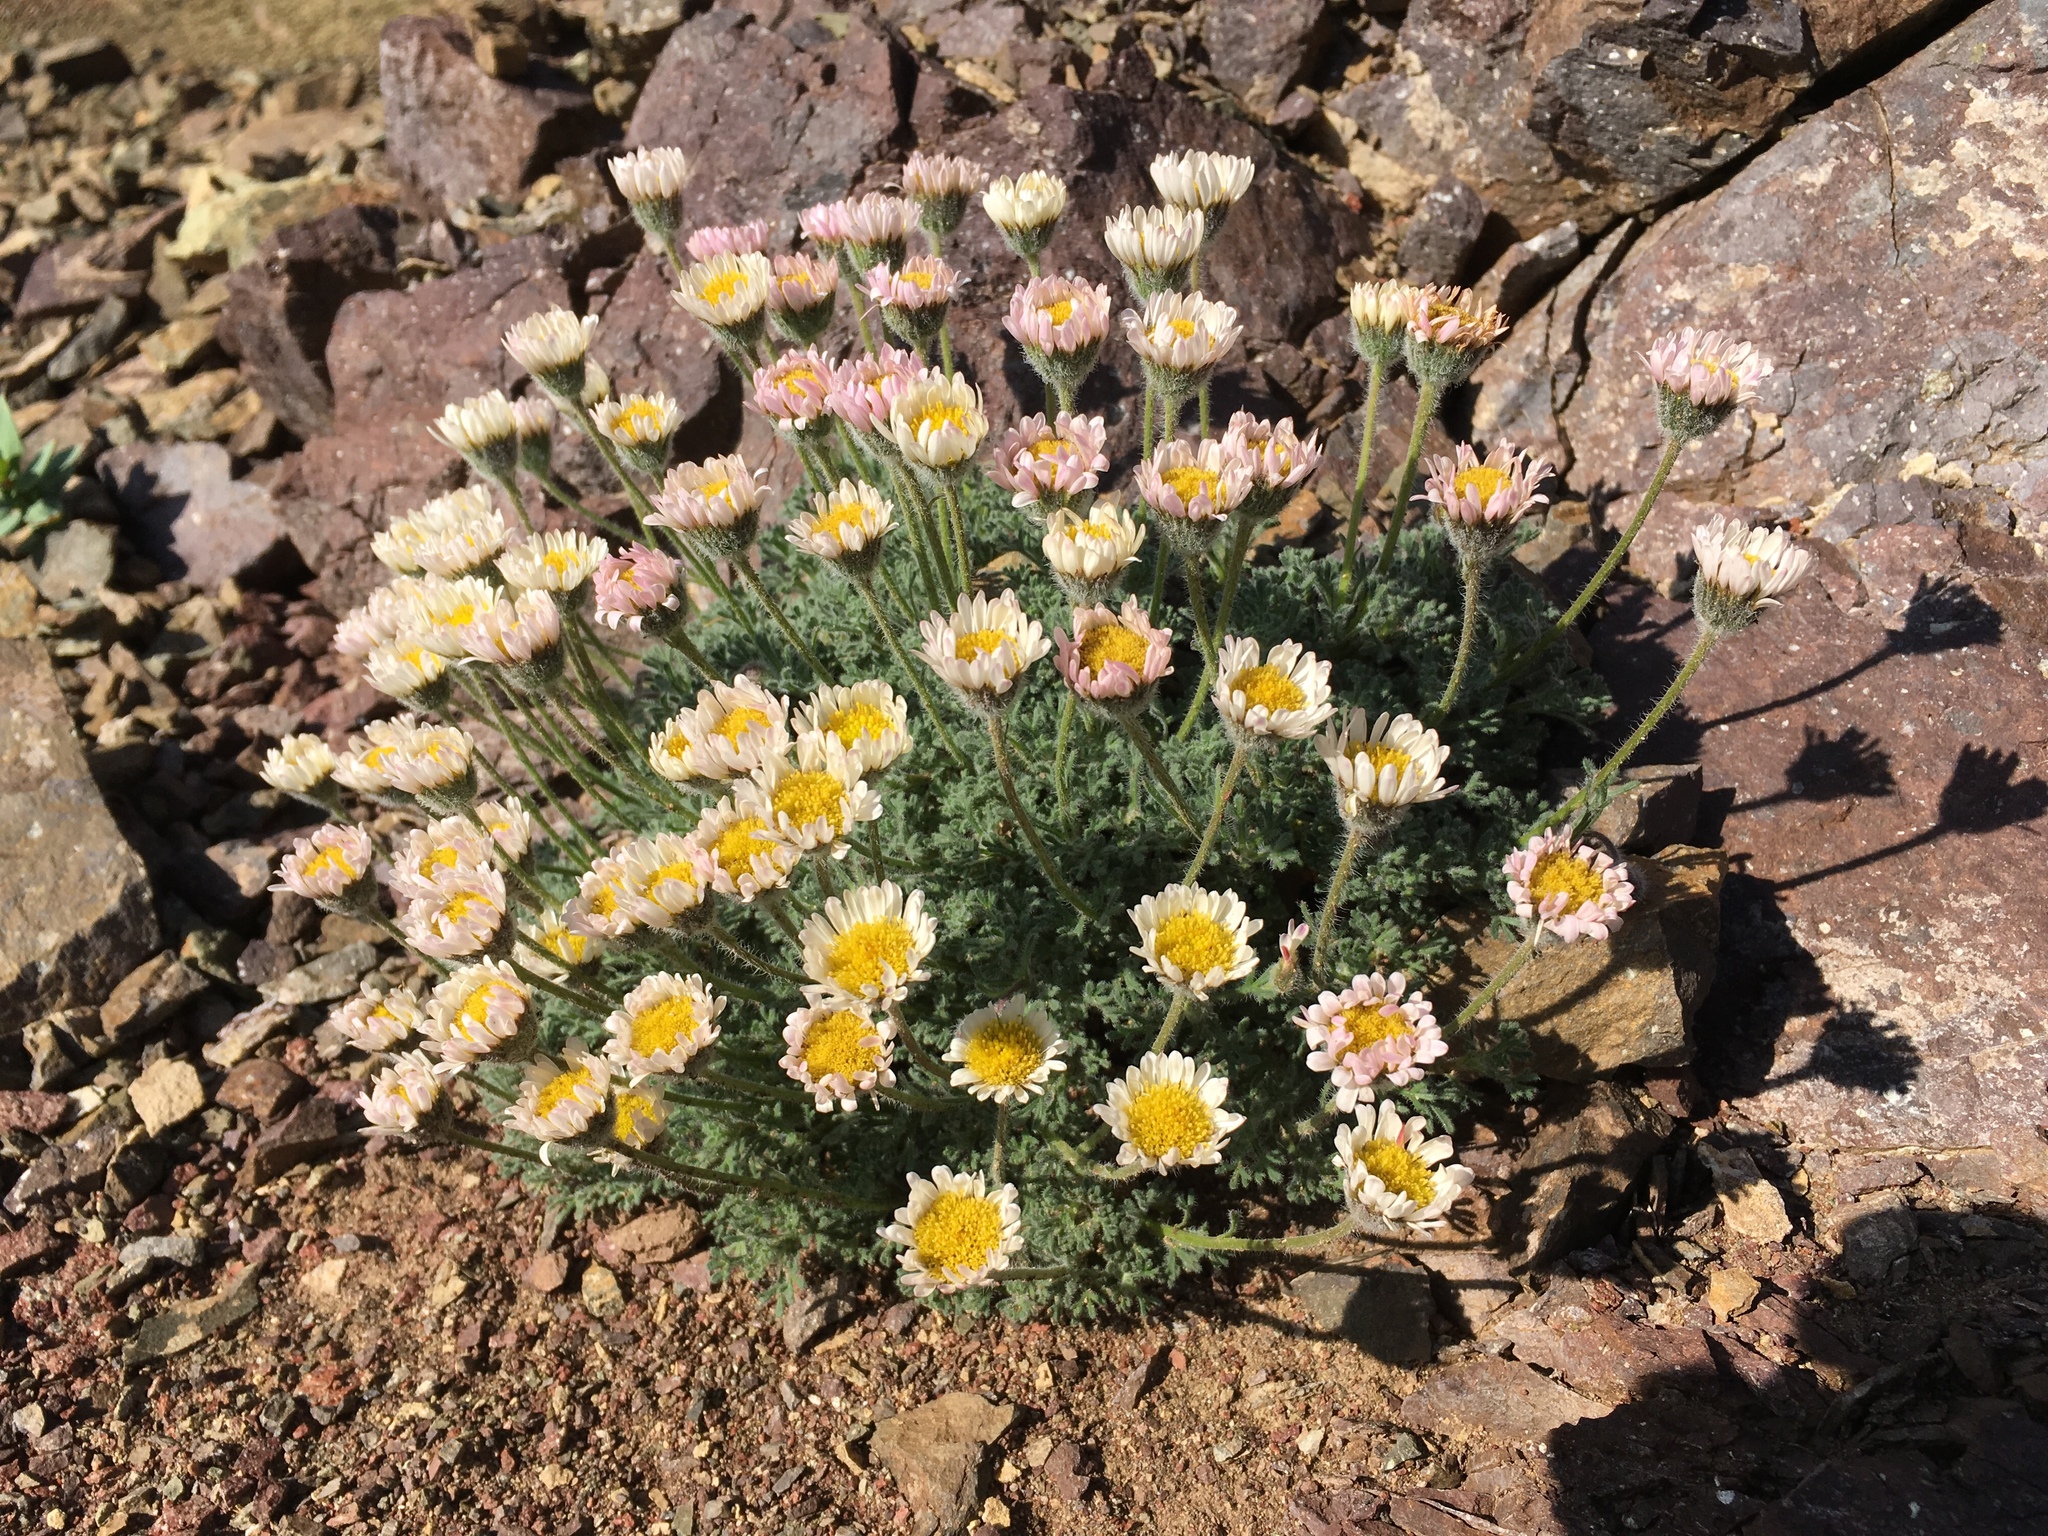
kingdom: Plantae
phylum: Tracheophyta
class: Magnoliopsida
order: Asterales
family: Asteraceae
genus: Erigeron
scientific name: Erigeron compositus
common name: Dwarf mountain fleabane
